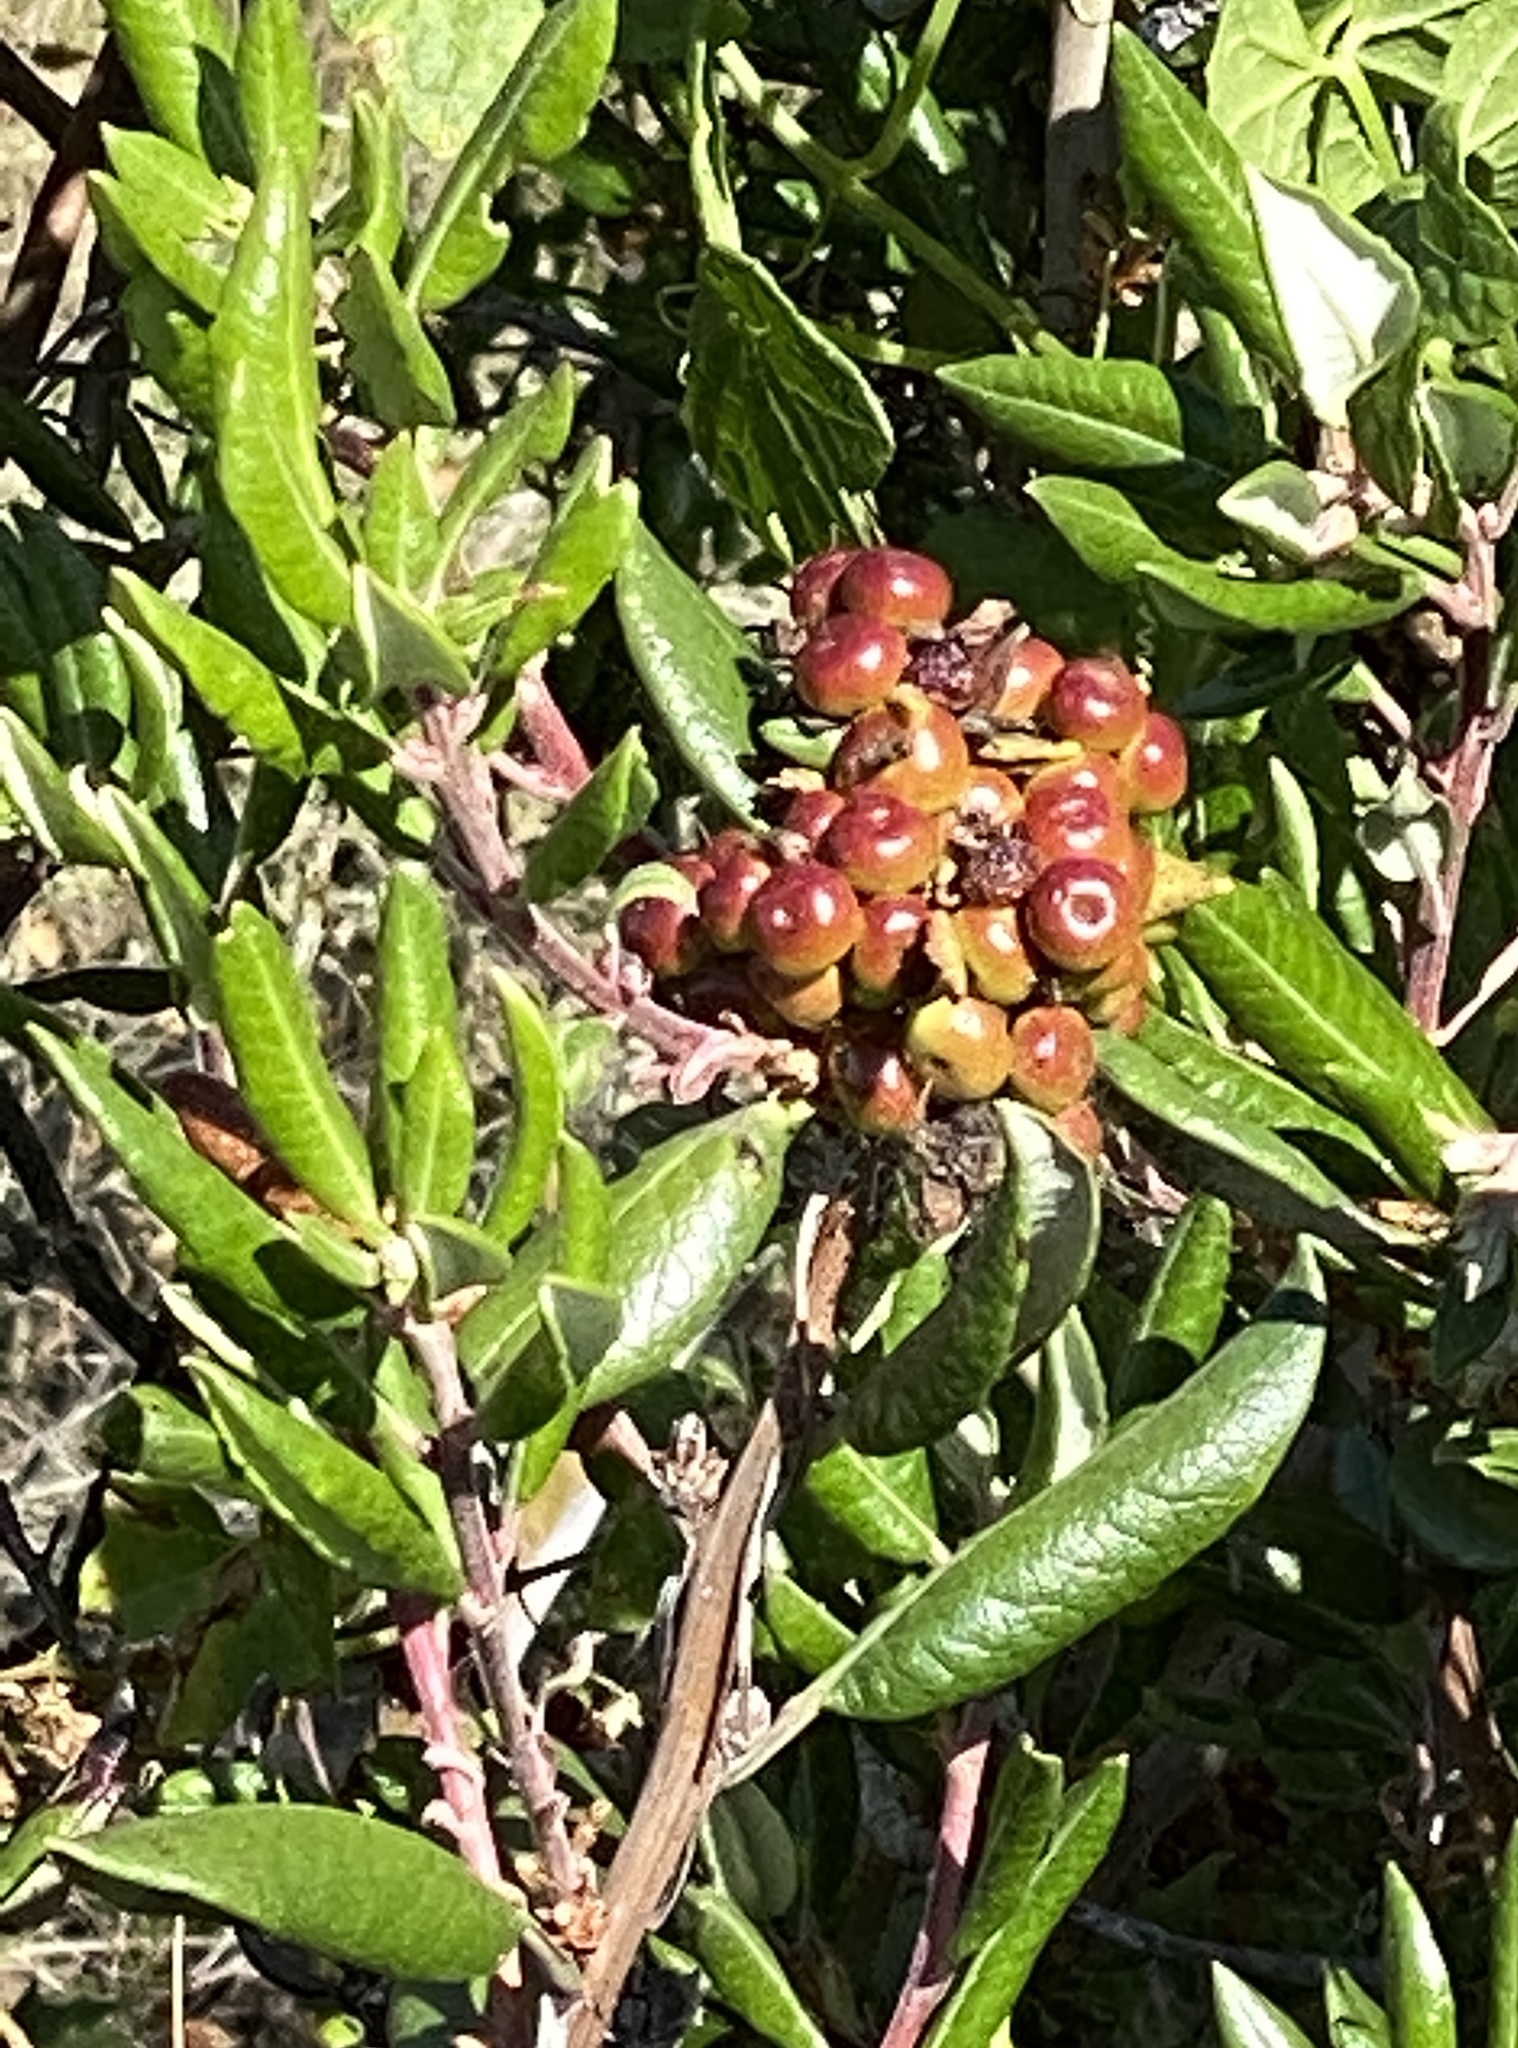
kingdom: Plantae
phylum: Tracheophyta
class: Magnoliopsida
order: Ericales
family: Ericaceae
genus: Arctostaphylos
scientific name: Arctostaphylos bicolor
